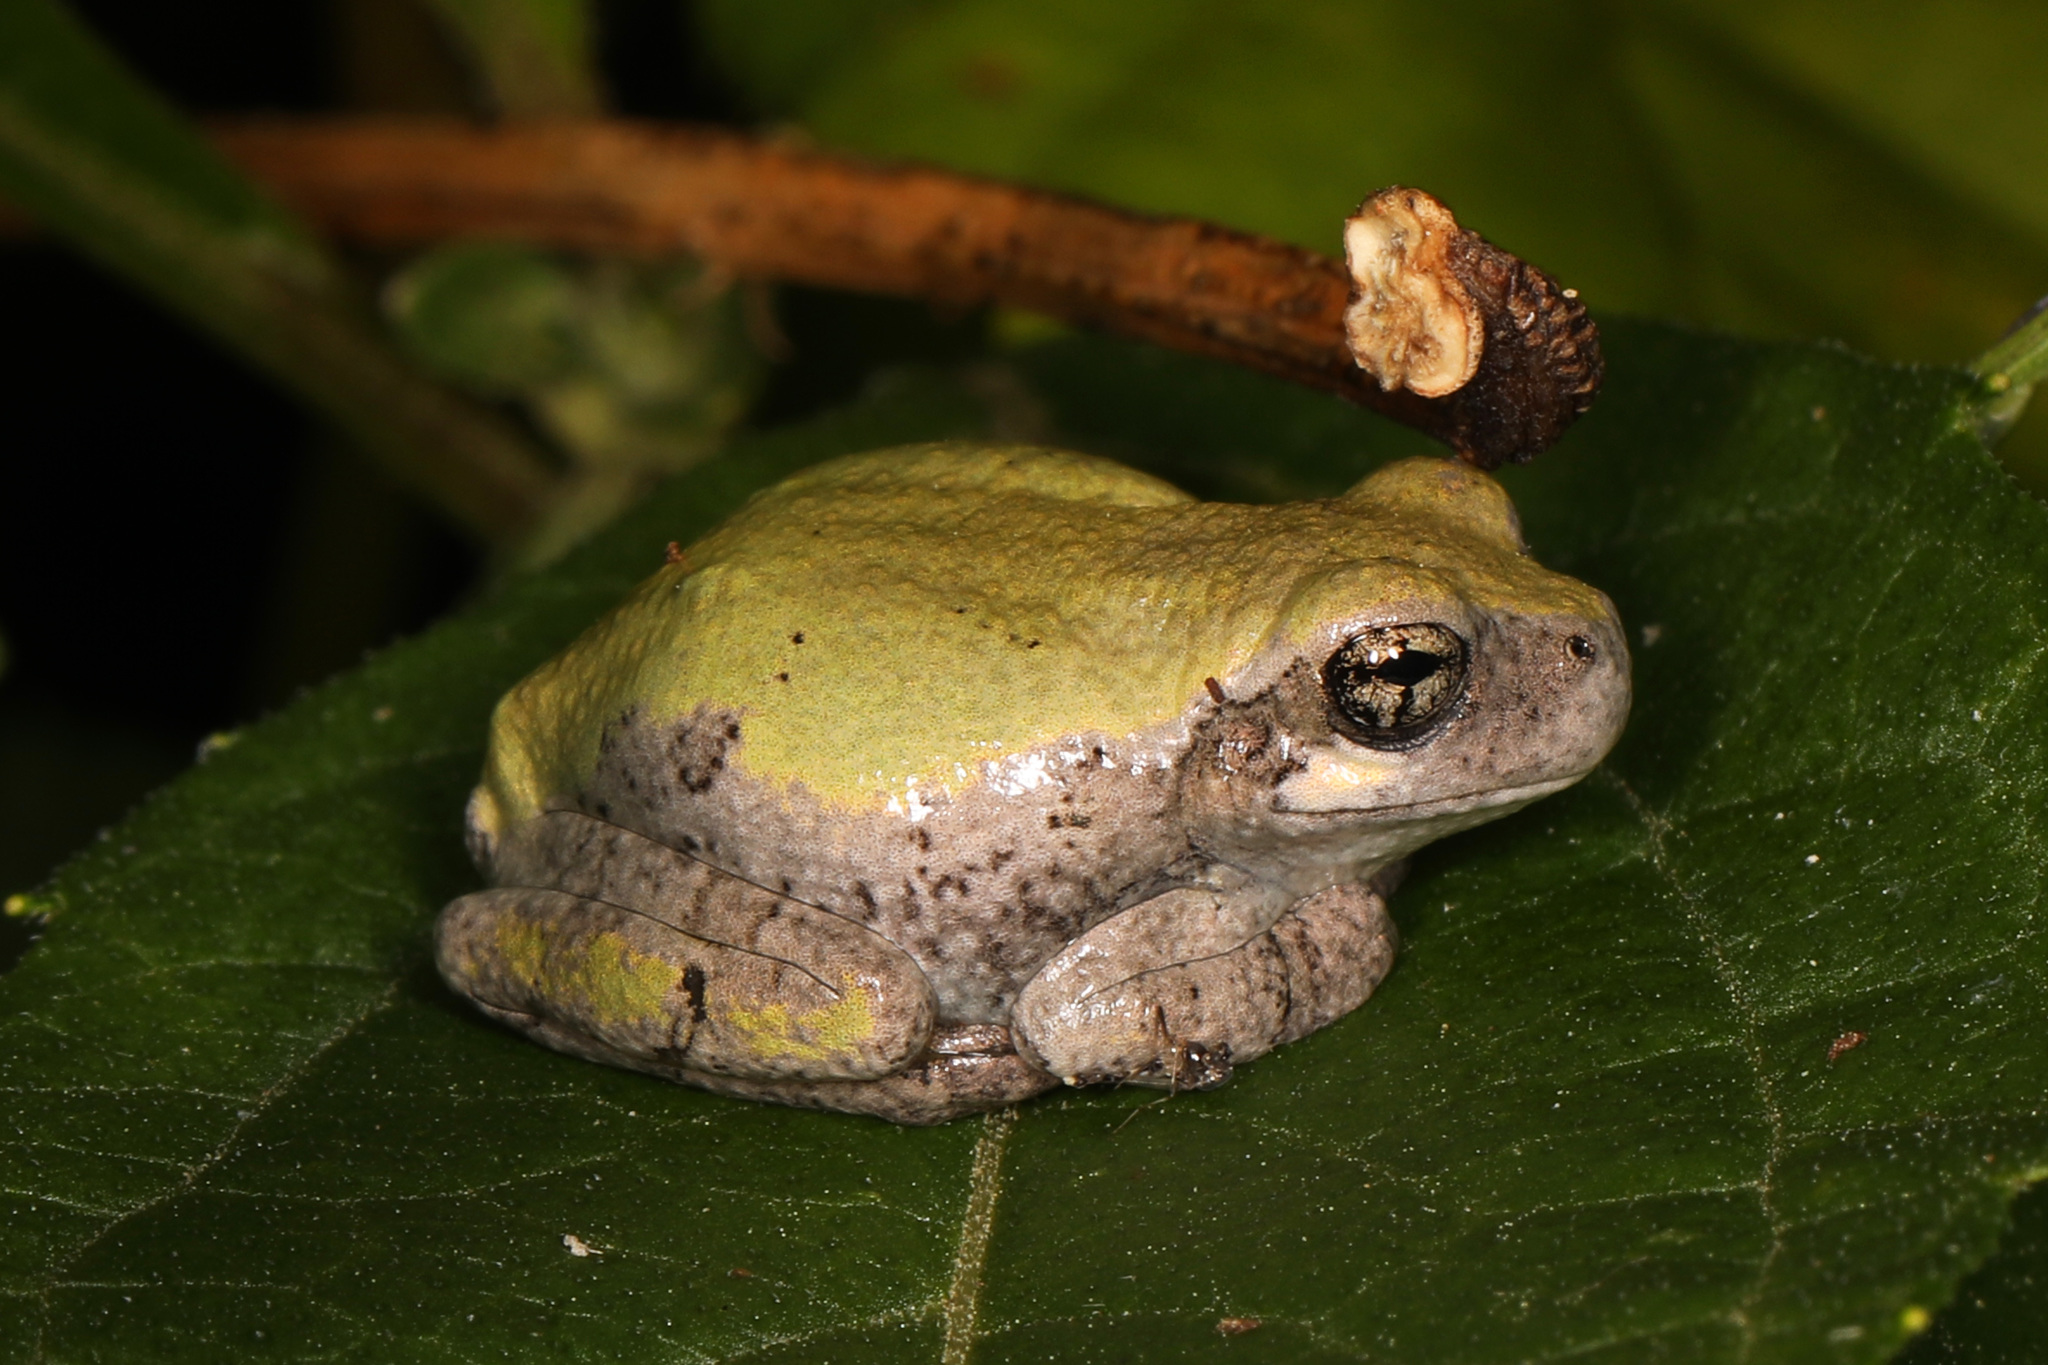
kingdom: Animalia
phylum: Chordata
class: Amphibia
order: Anura
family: Hylidae
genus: Hyla
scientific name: Hyla
